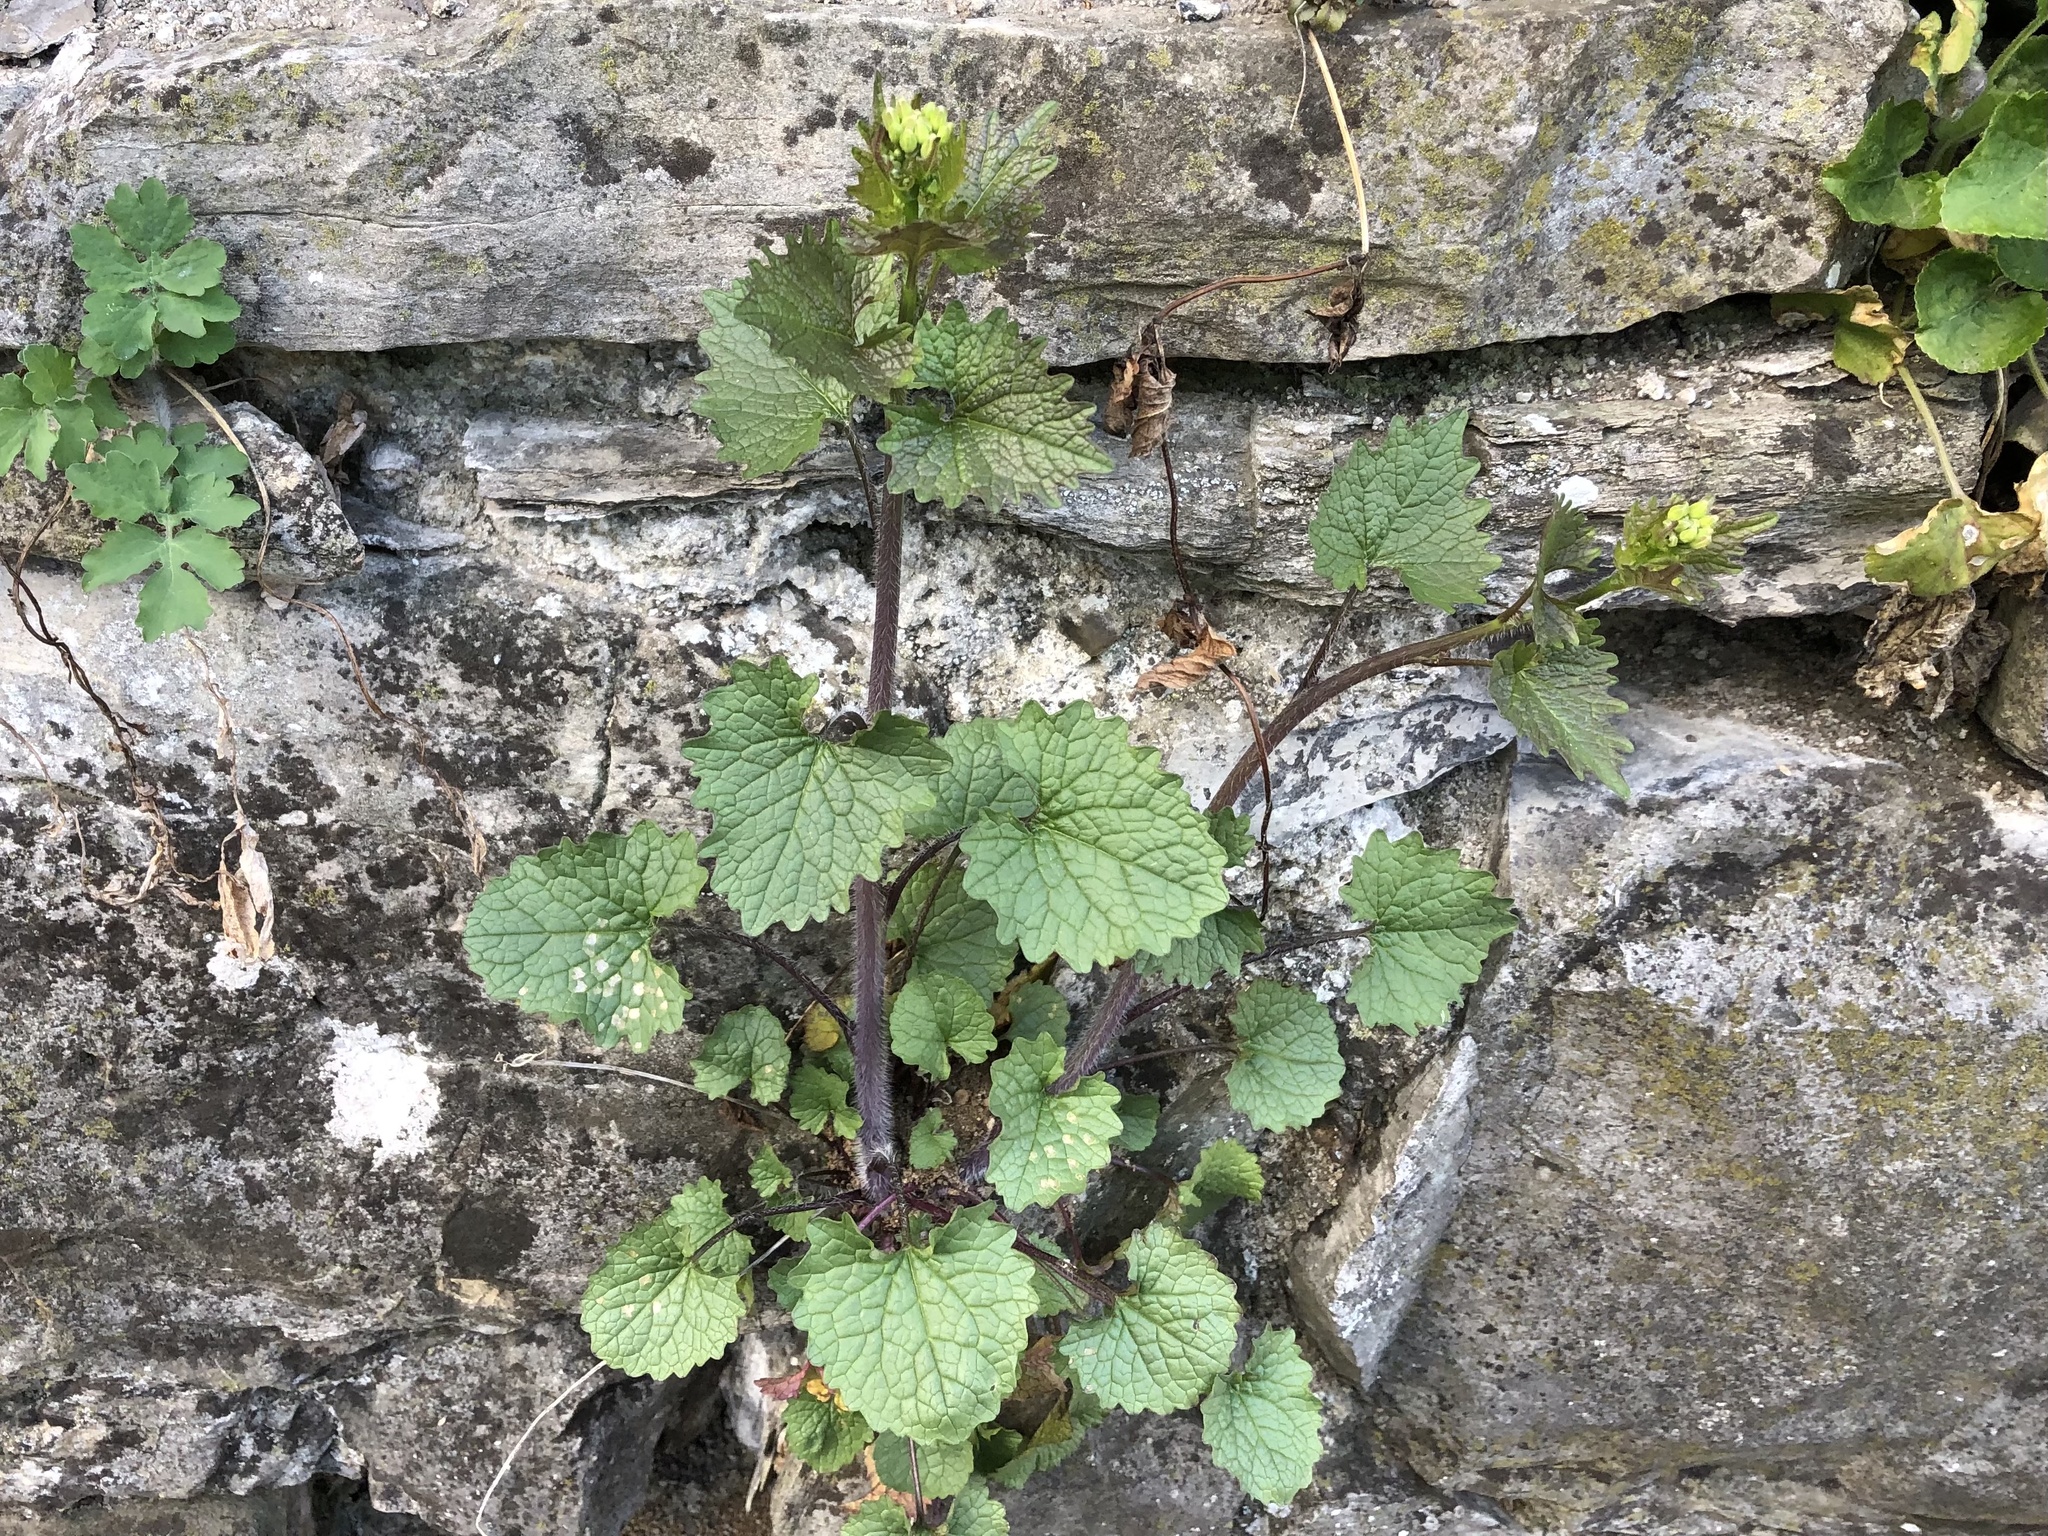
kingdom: Plantae
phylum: Tracheophyta
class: Magnoliopsida
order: Brassicales
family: Brassicaceae
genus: Alliaria
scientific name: Alliaria petiolata
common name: Garlic mustard
